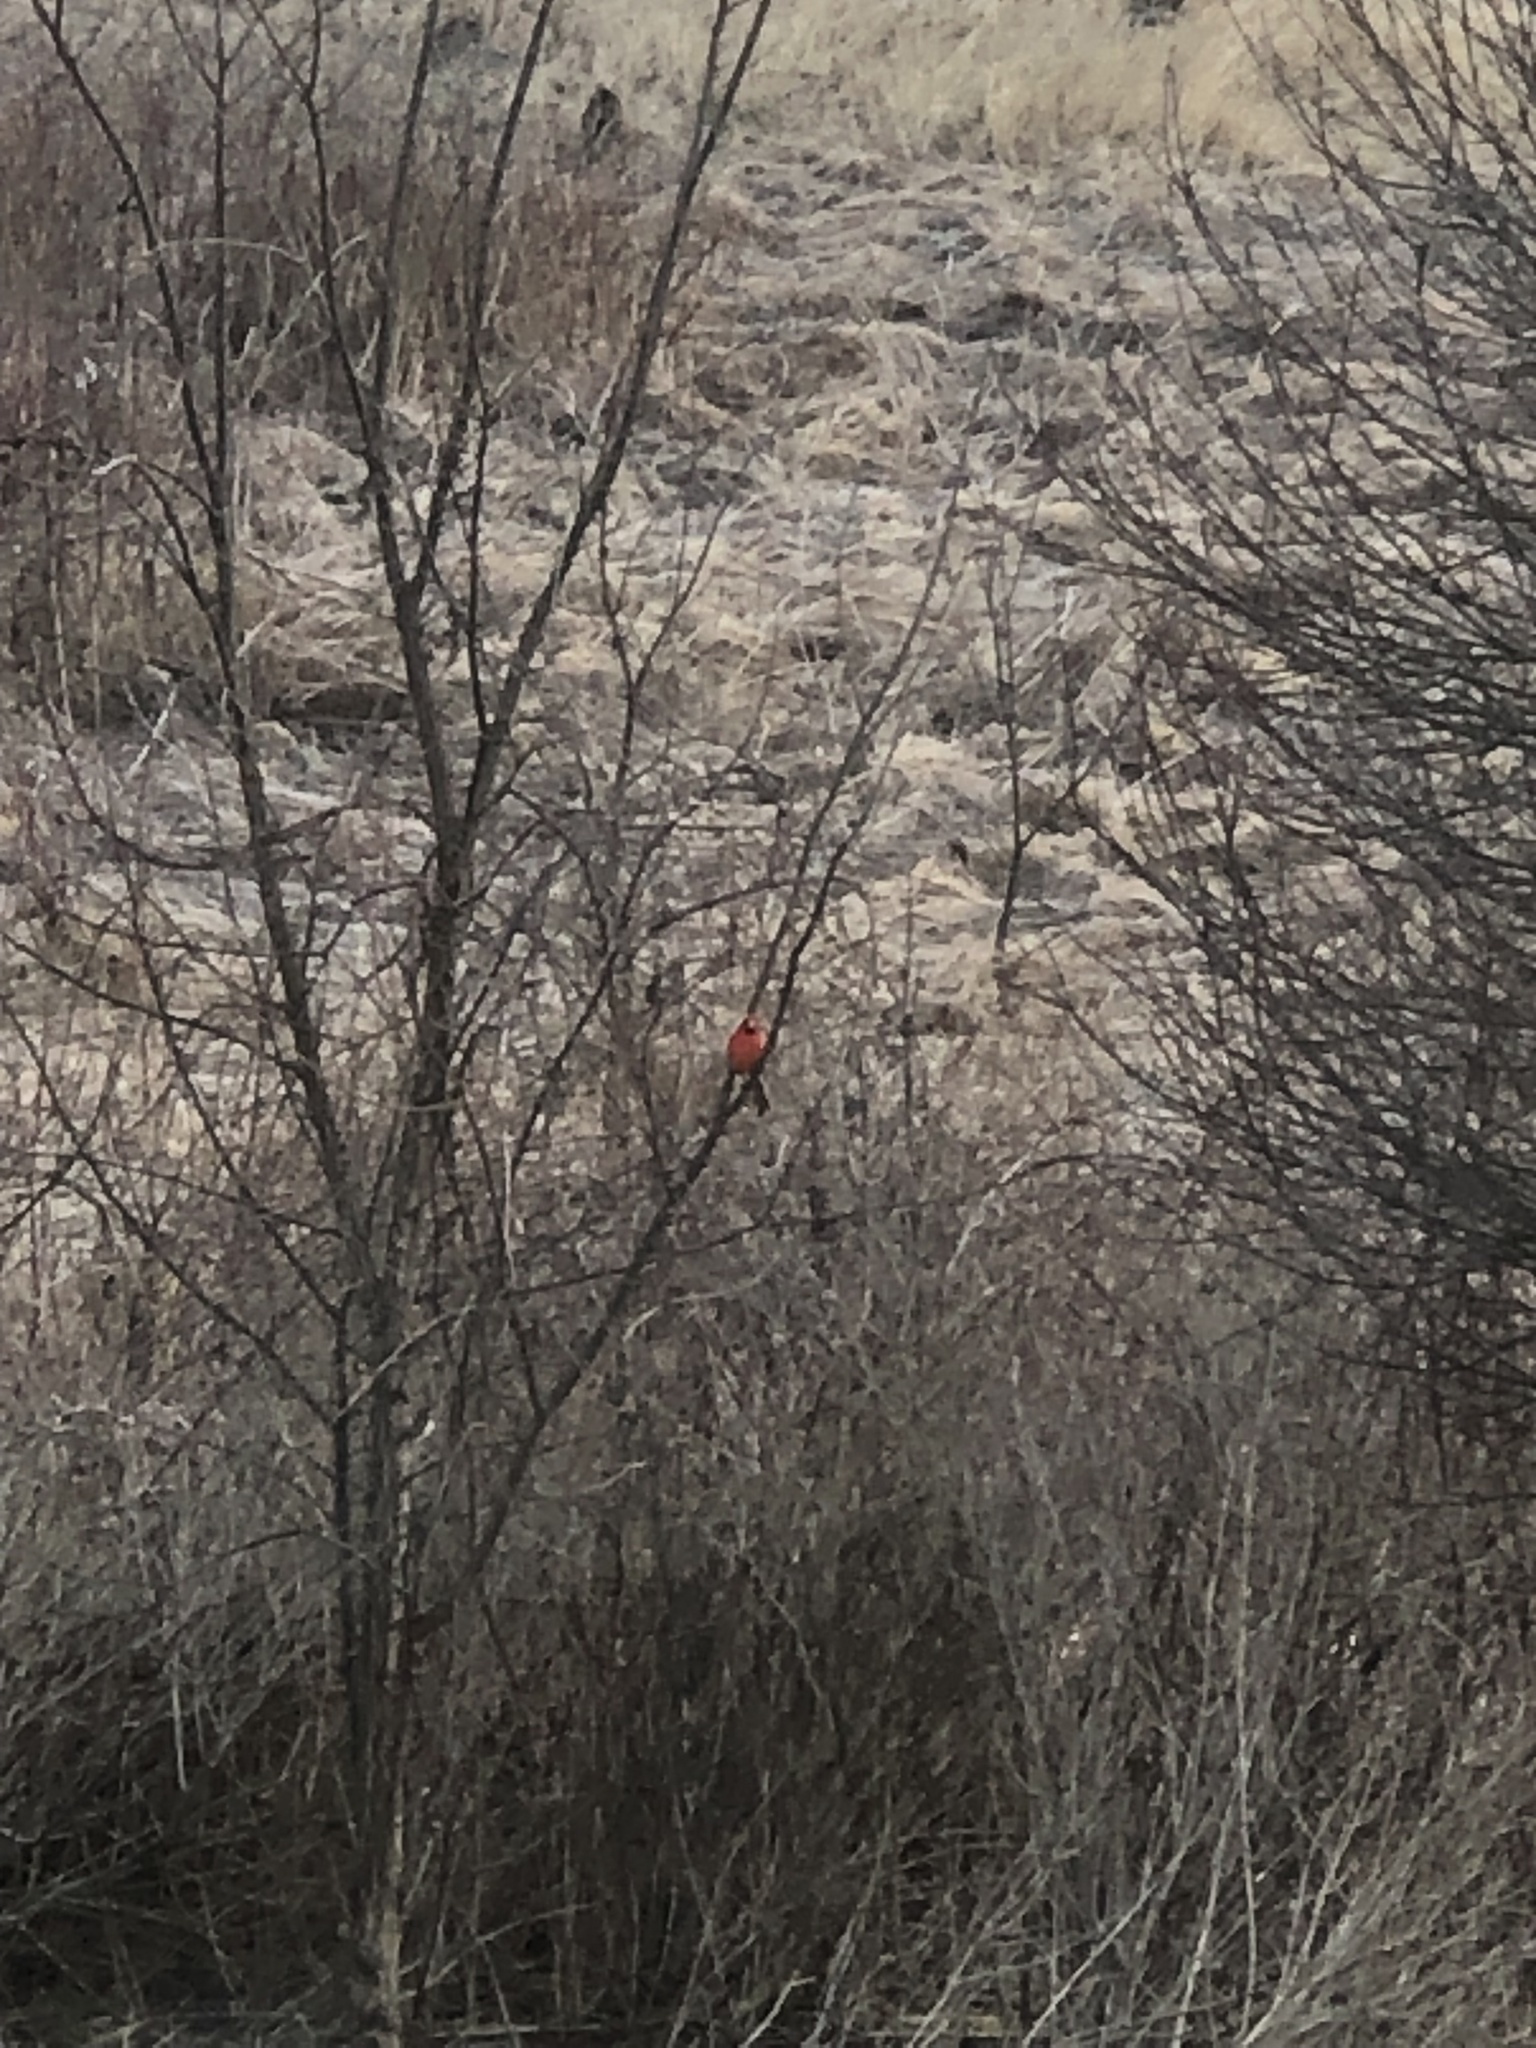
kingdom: Animalia
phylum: Chordata
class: Aves
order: Passeriformes
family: Cardinalidae
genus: Cardinalis
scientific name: Cardinalis cardinalis
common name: Northern cardinal
